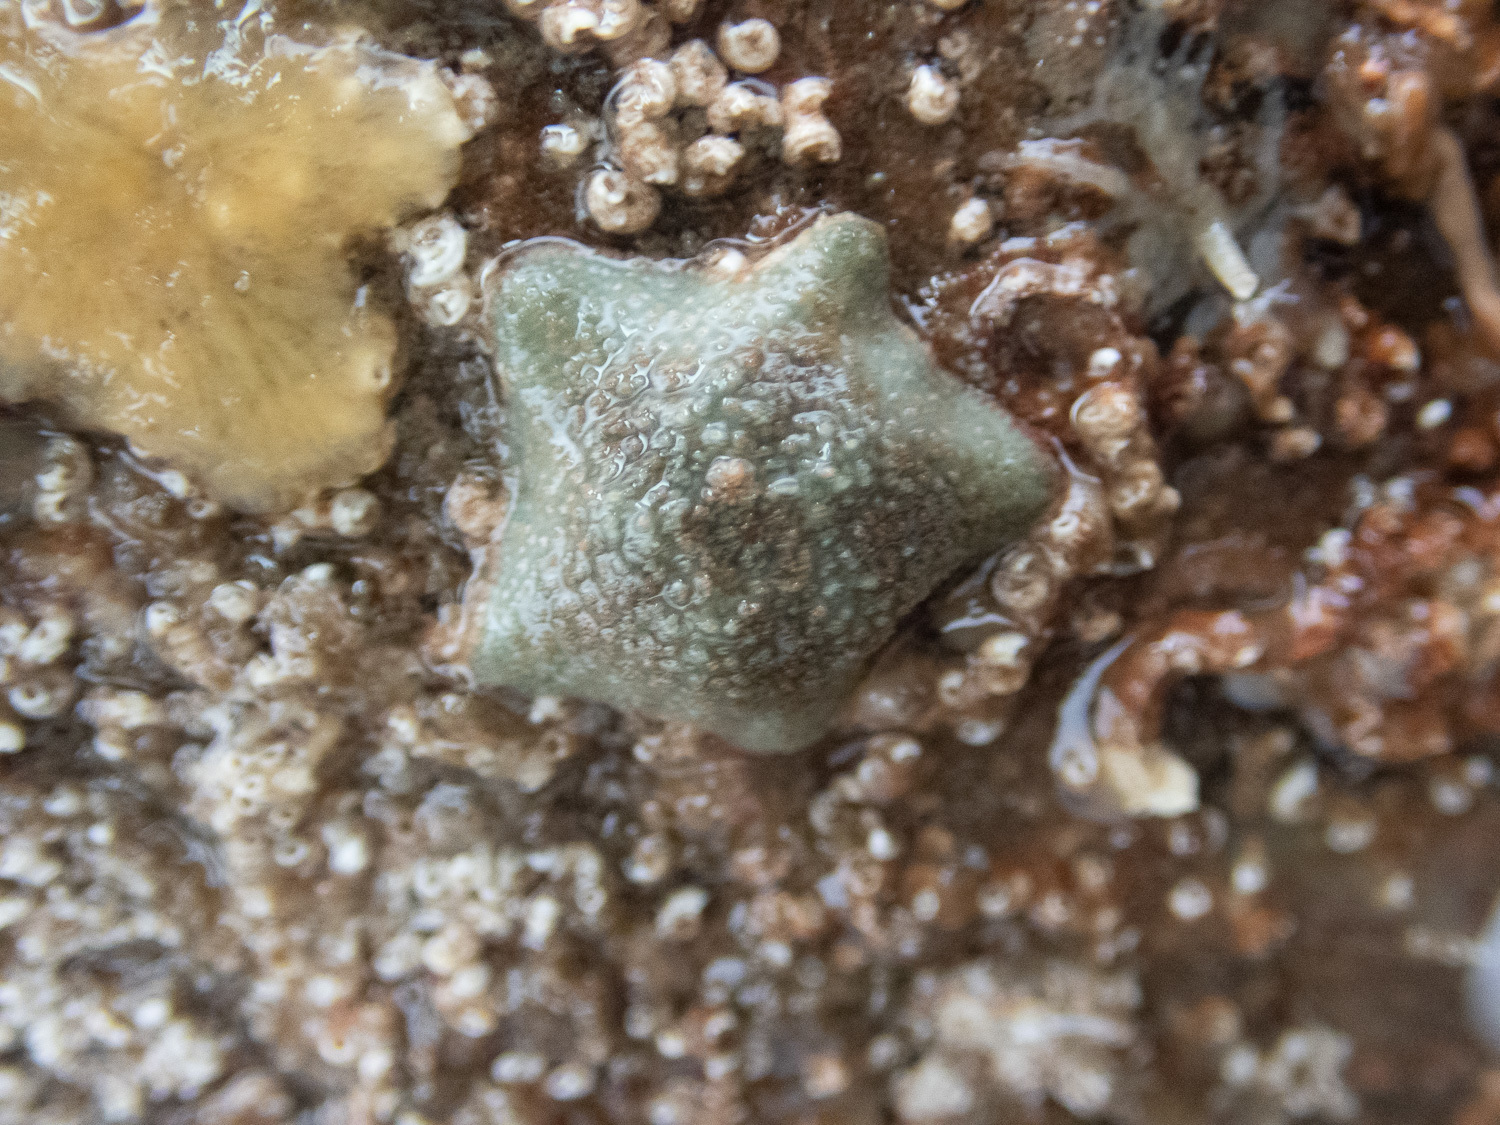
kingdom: Animalia
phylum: Echinodermata
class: Asteroidea
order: Valvatida
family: Asterinidae
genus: Asterina
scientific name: Asterina gibbosa
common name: Cushion star
